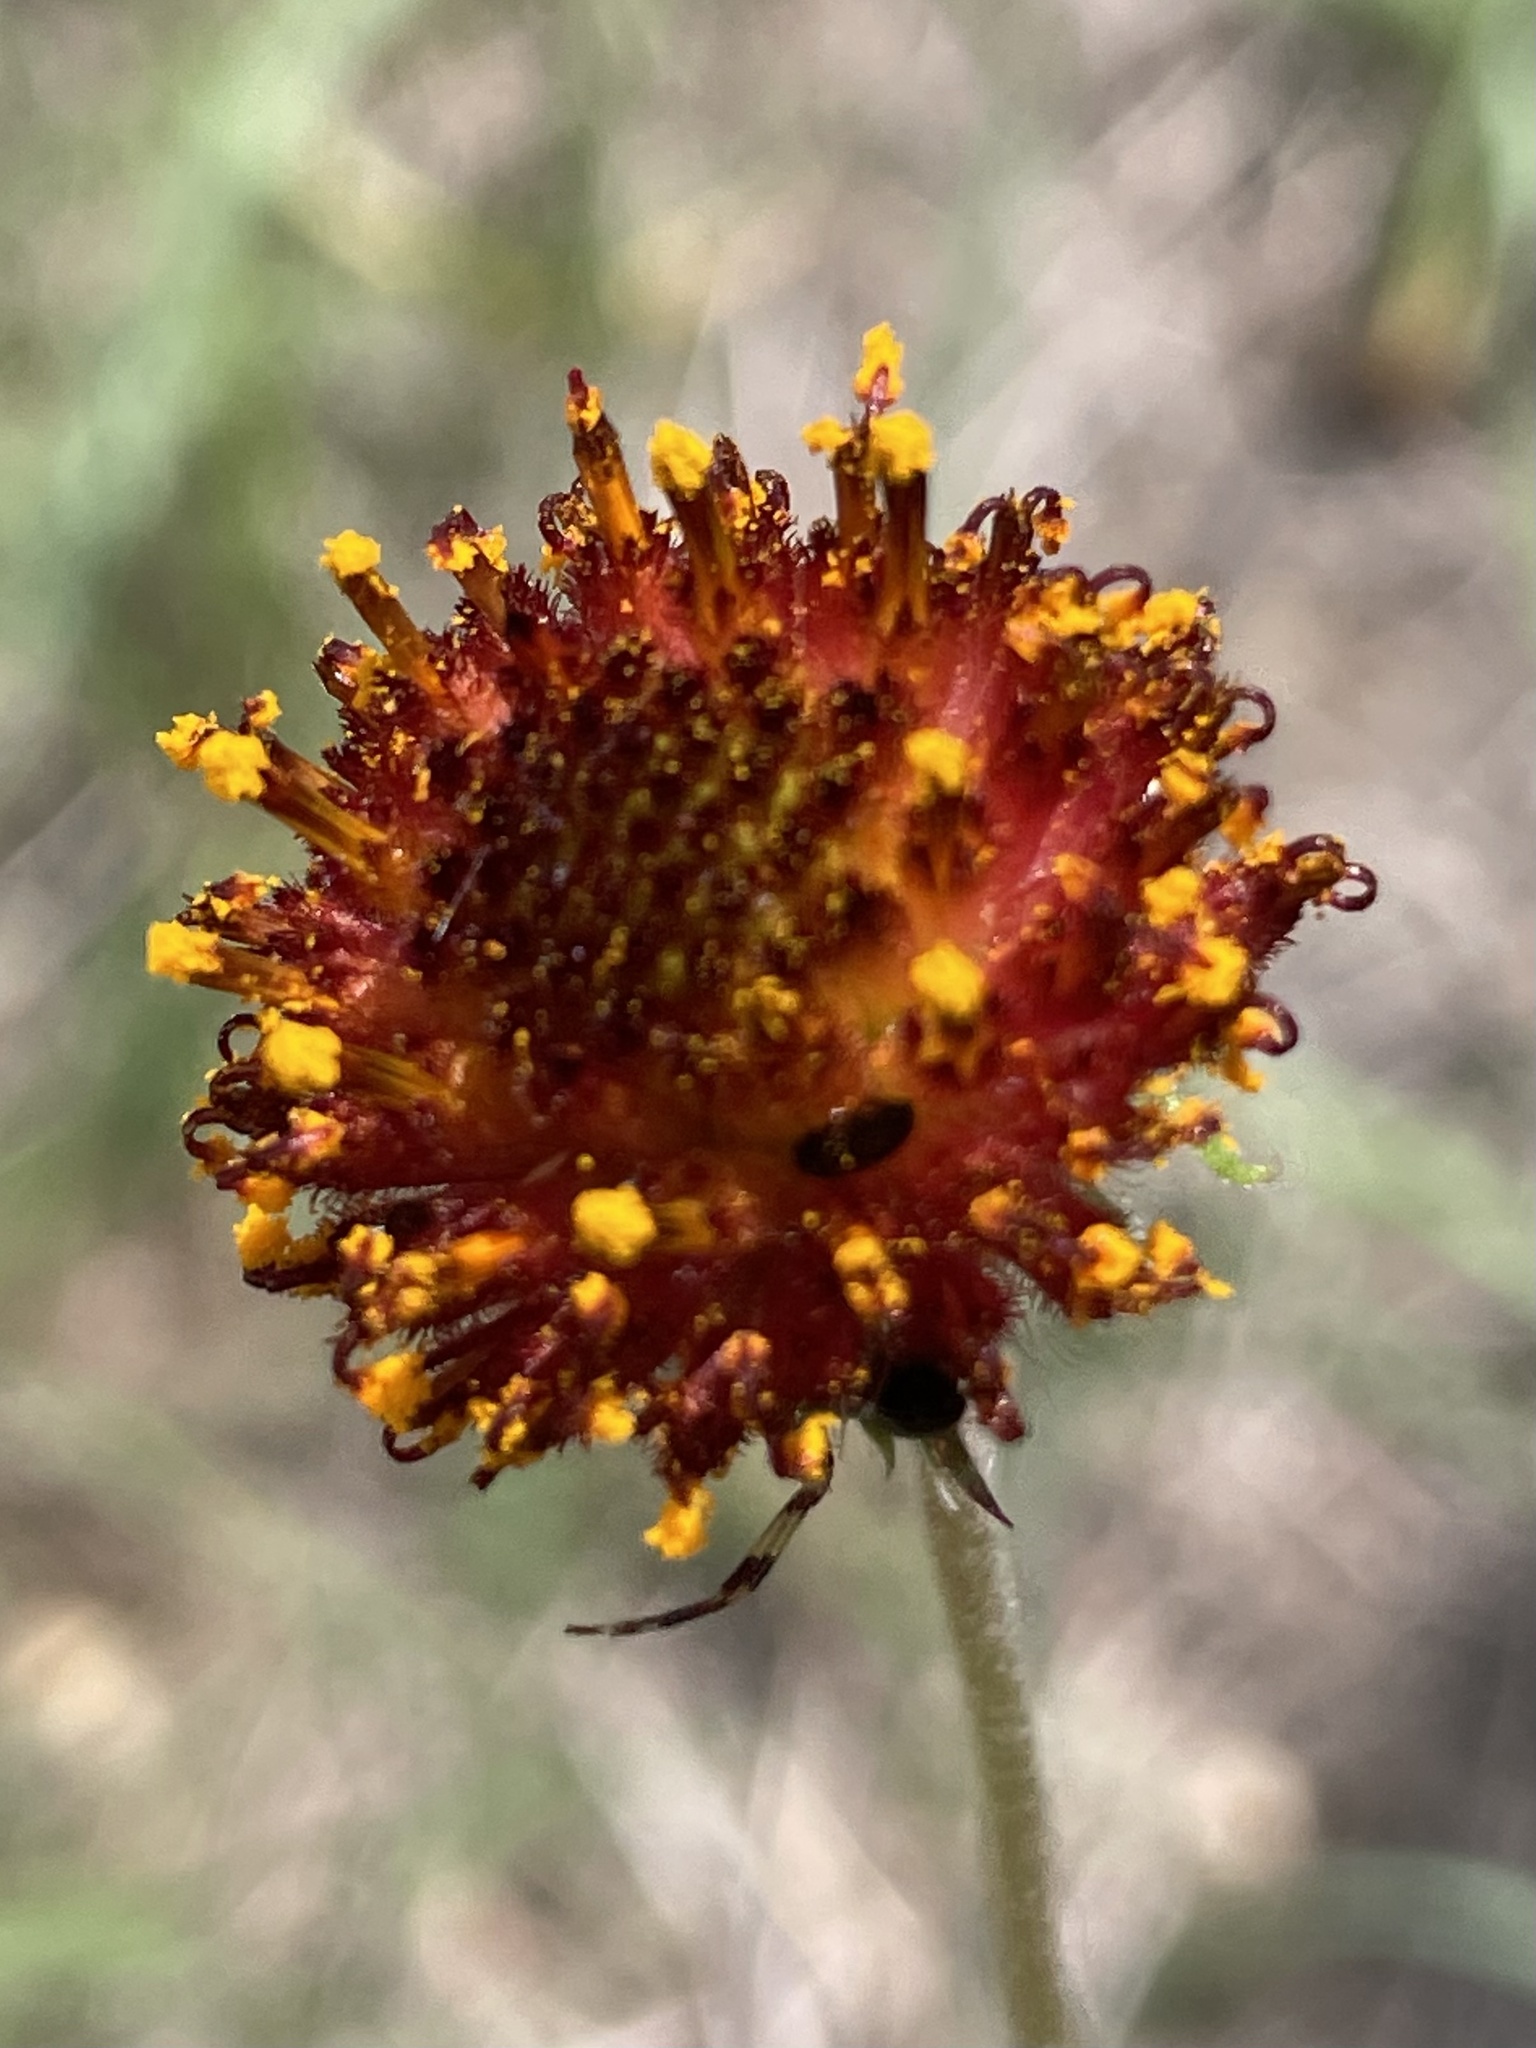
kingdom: Plantae
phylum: Tracheophyta
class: Magnoliopsida
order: Asterales
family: Asteraceae
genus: Gaillardia
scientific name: Gaillardia suavis
